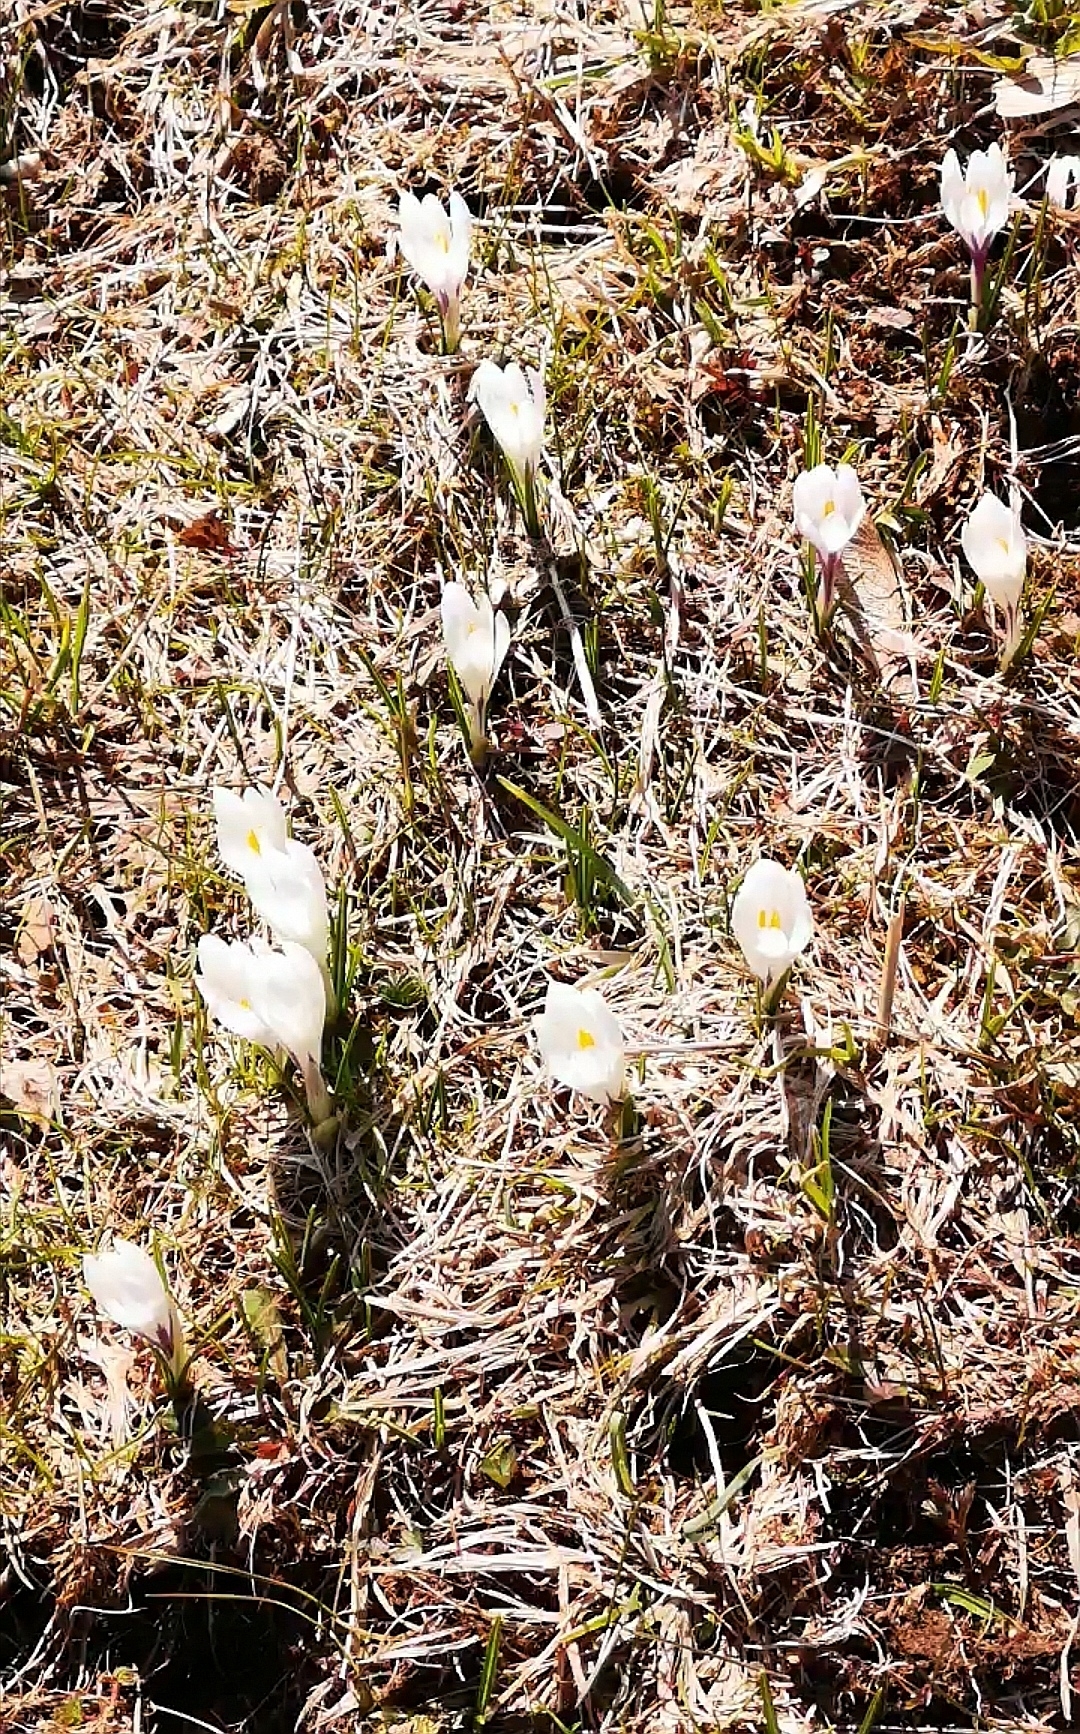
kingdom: Plantae
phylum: Tracheophyta
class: Liliopsida
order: Asparagales
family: Iridaceae
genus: Crocus
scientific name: Crocus vernus
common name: Spring crocus
